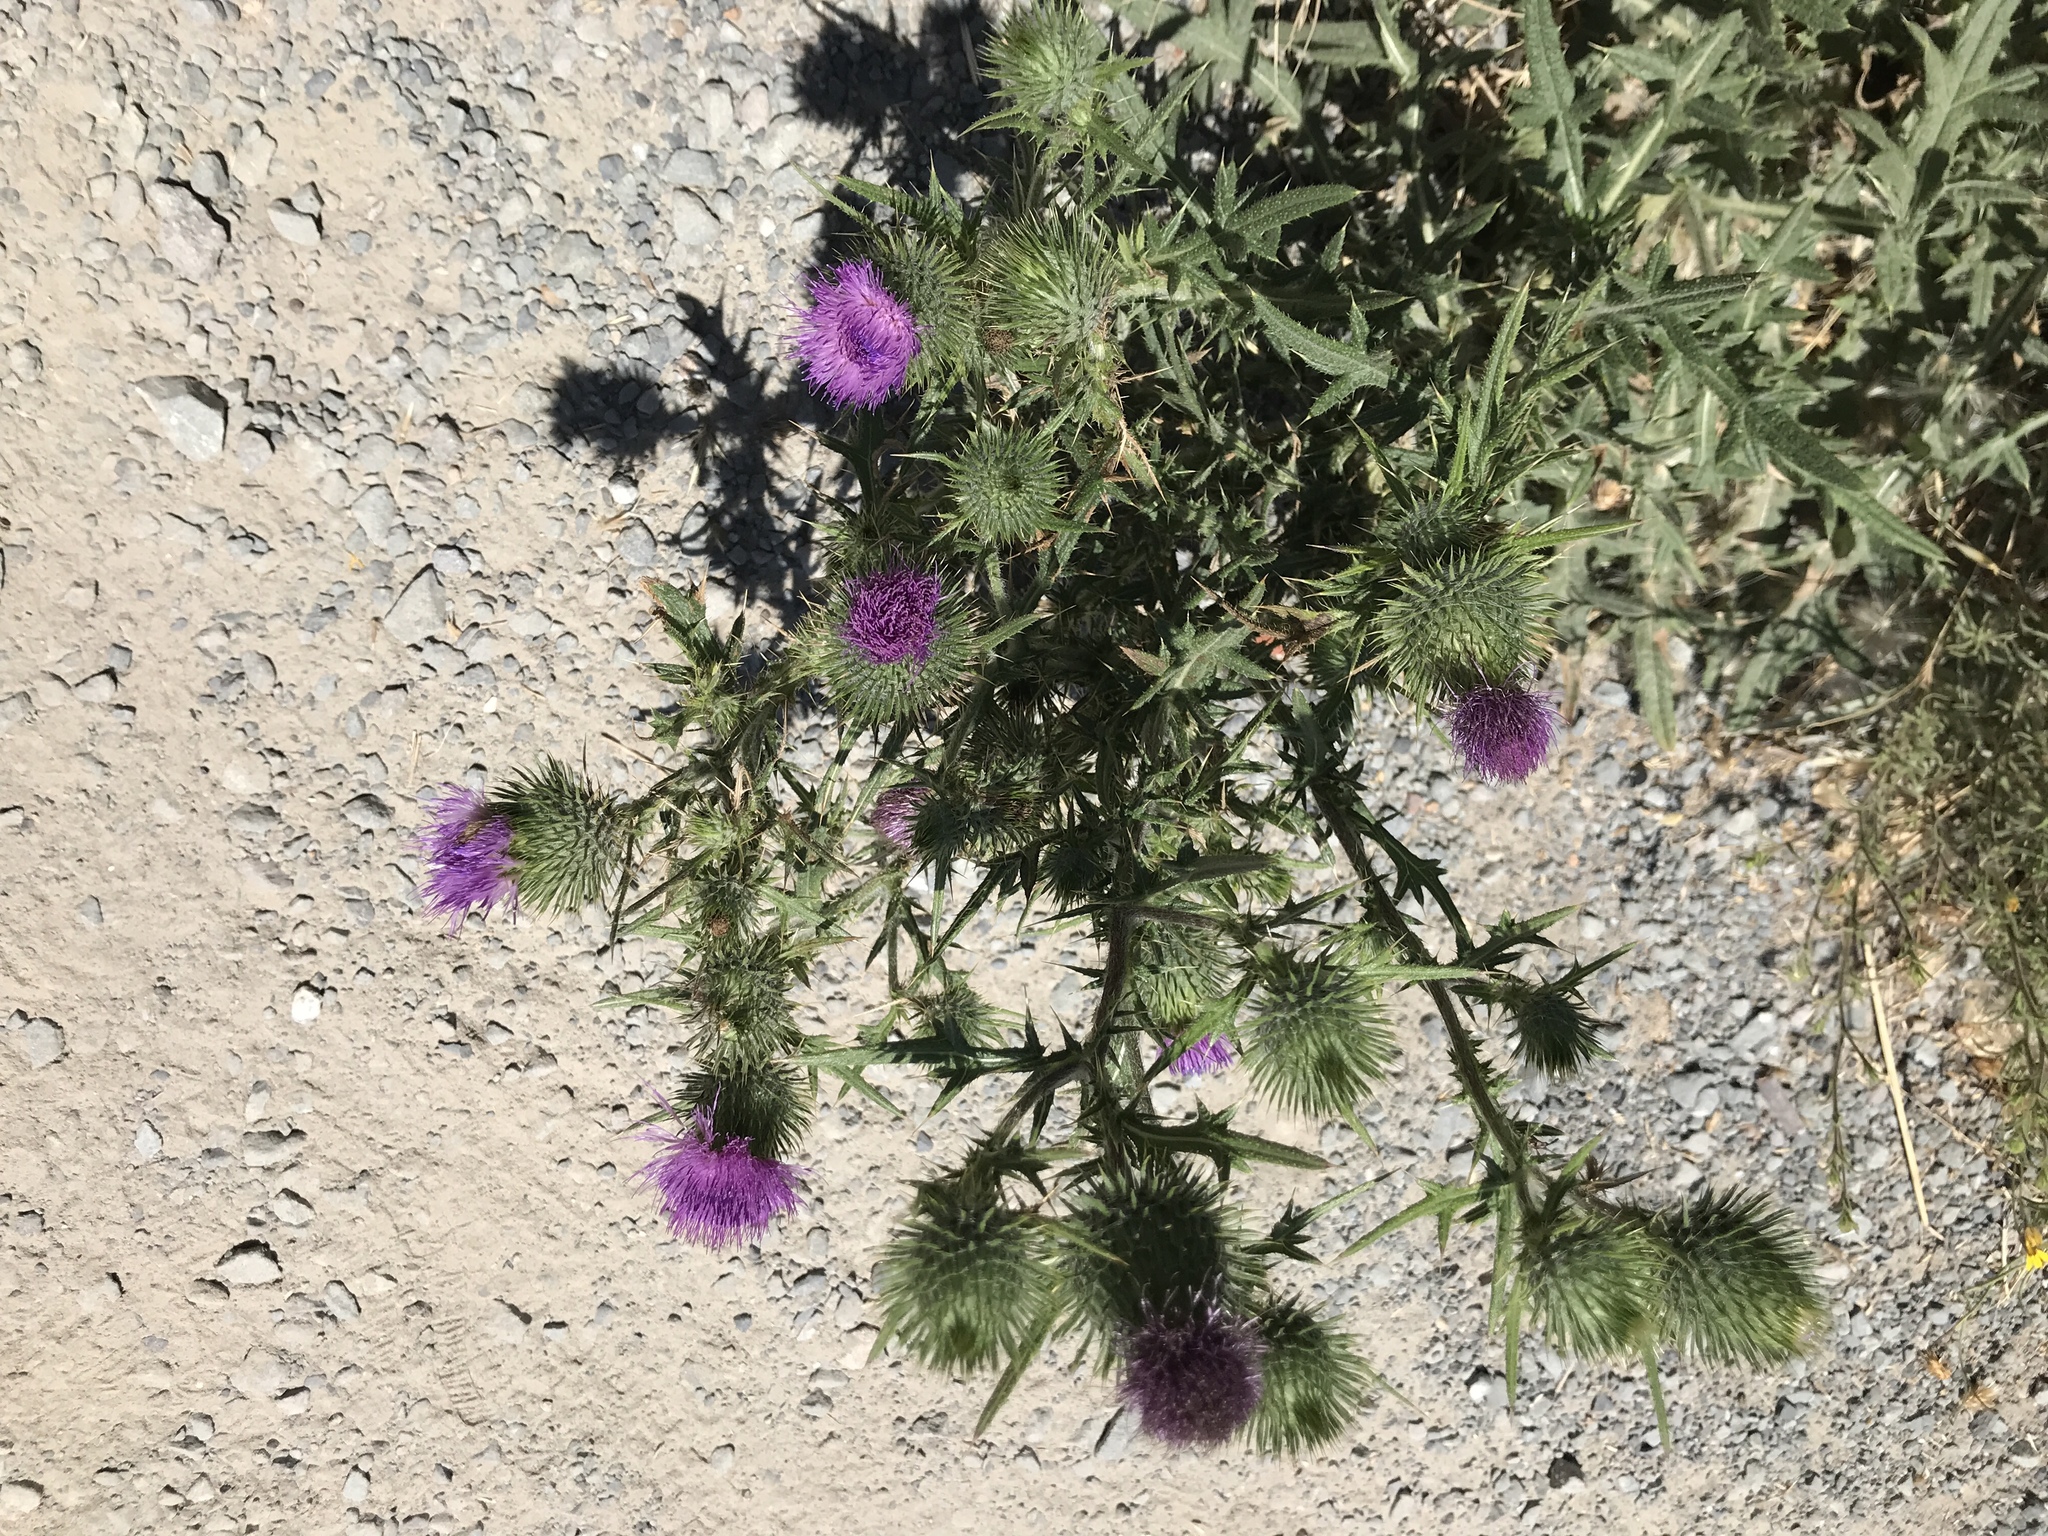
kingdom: Plantae
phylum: Tracheophyta
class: Magnoliopsida
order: Asterales
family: Asteraceae
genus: Cirsium
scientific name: Cirsium vulgare
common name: Bull thistle
